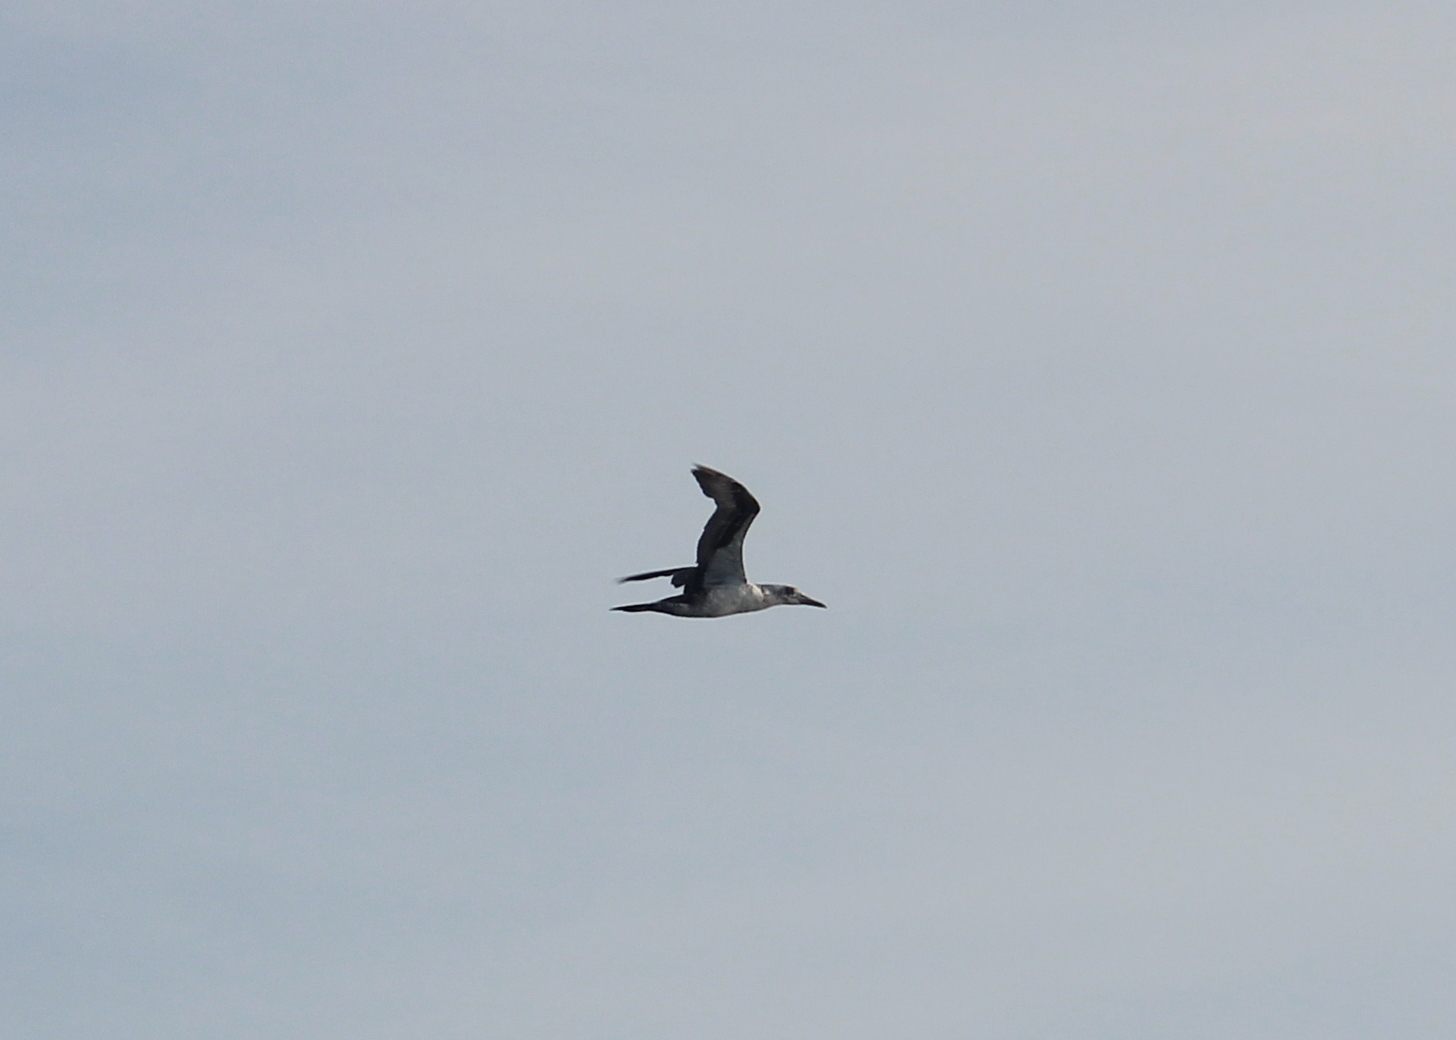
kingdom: Animalia
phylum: Chordata
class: Aves
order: Suliformes
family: Sulidae
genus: Morus
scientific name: Morus bassanus
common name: Northern gannet
